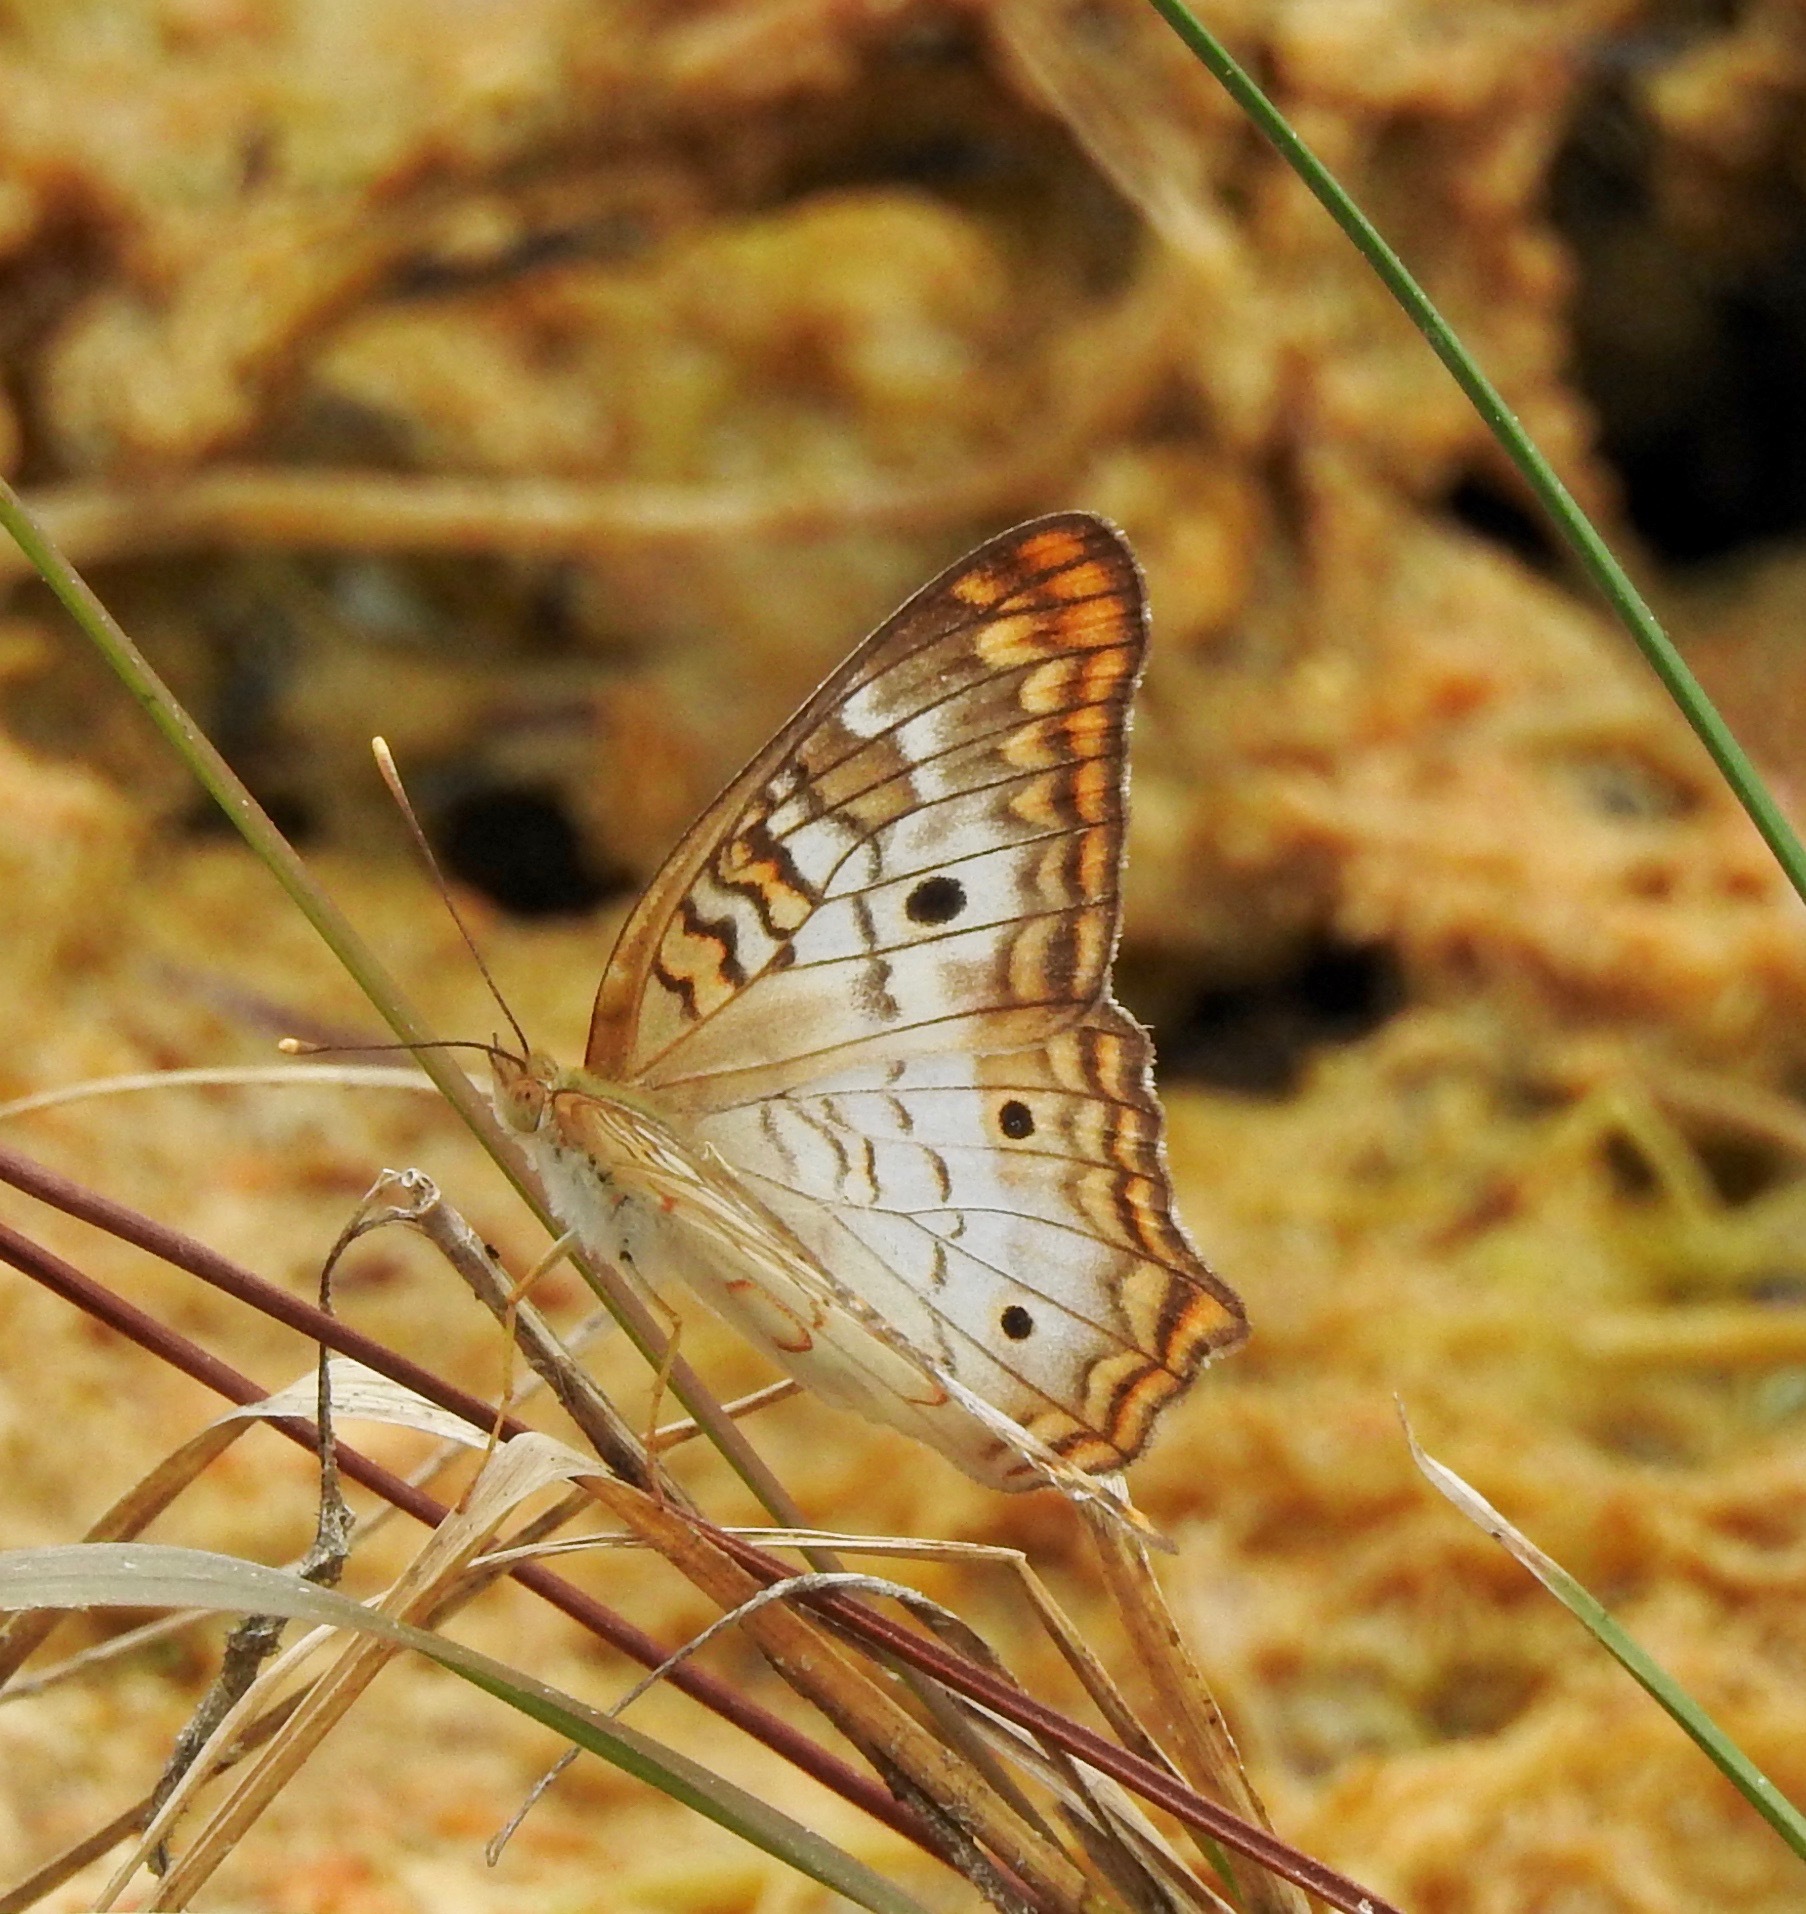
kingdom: Animalia
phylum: Arthropoda
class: Insecta
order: Lepidoptera
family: Nymphalidae
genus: Anartia
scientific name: Anartia jatrophae
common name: White peacock
